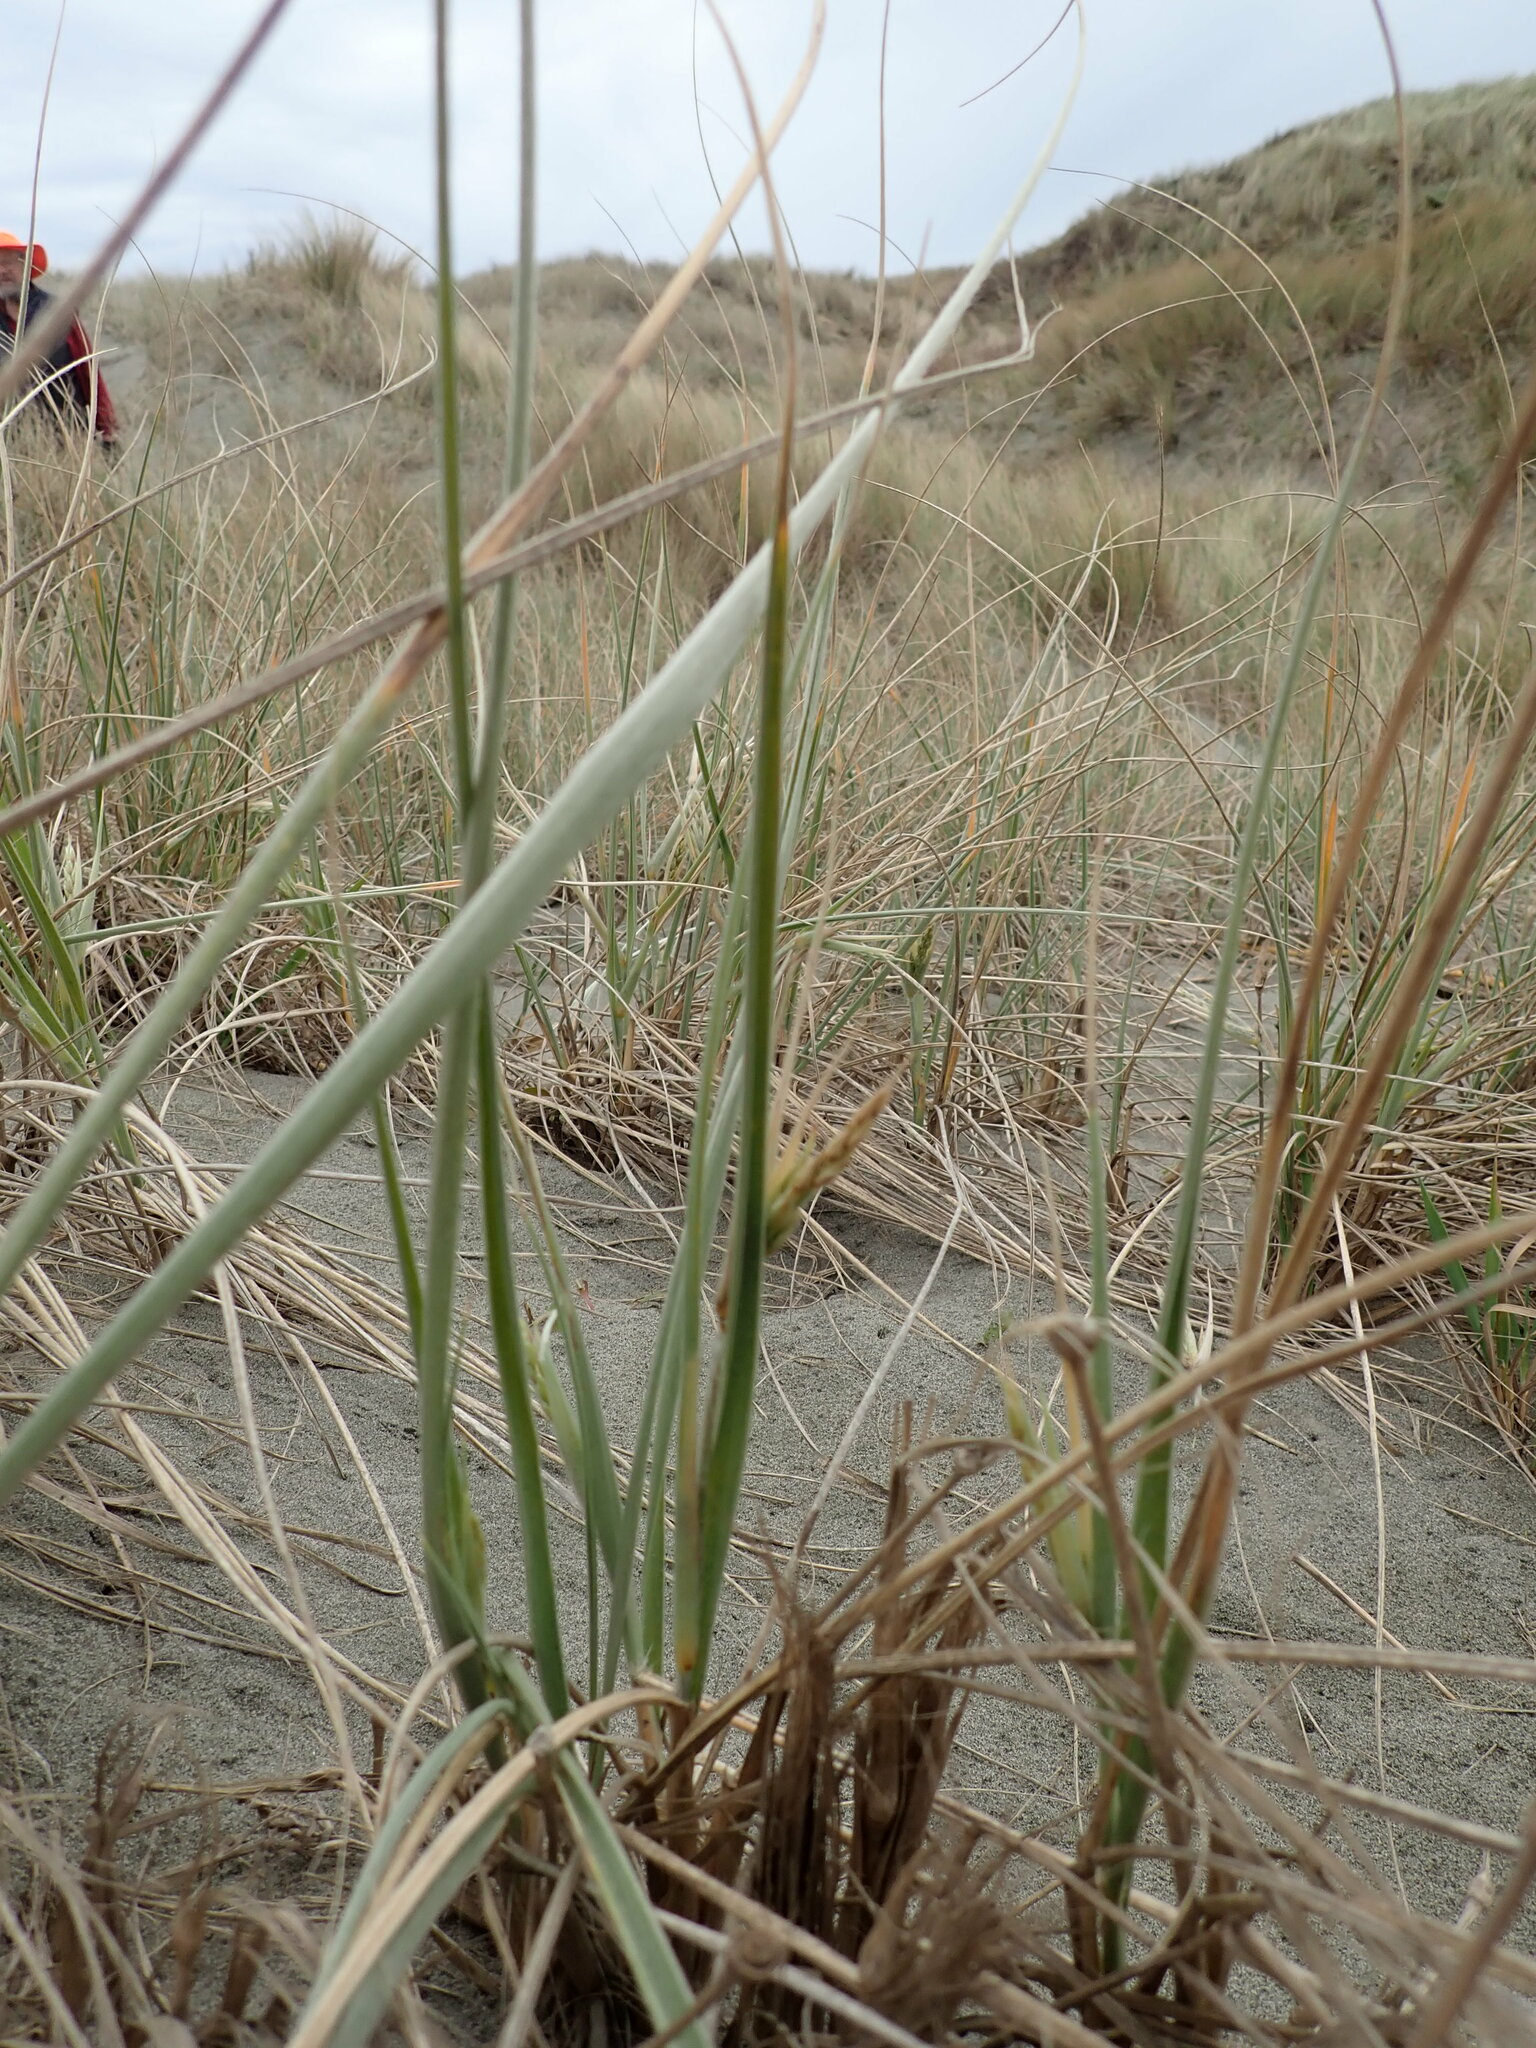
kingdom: Plantae
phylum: Tracheophyta
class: Liliopsida
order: Poales
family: Poaceae
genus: Spinifex
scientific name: Spinifex sericeus
